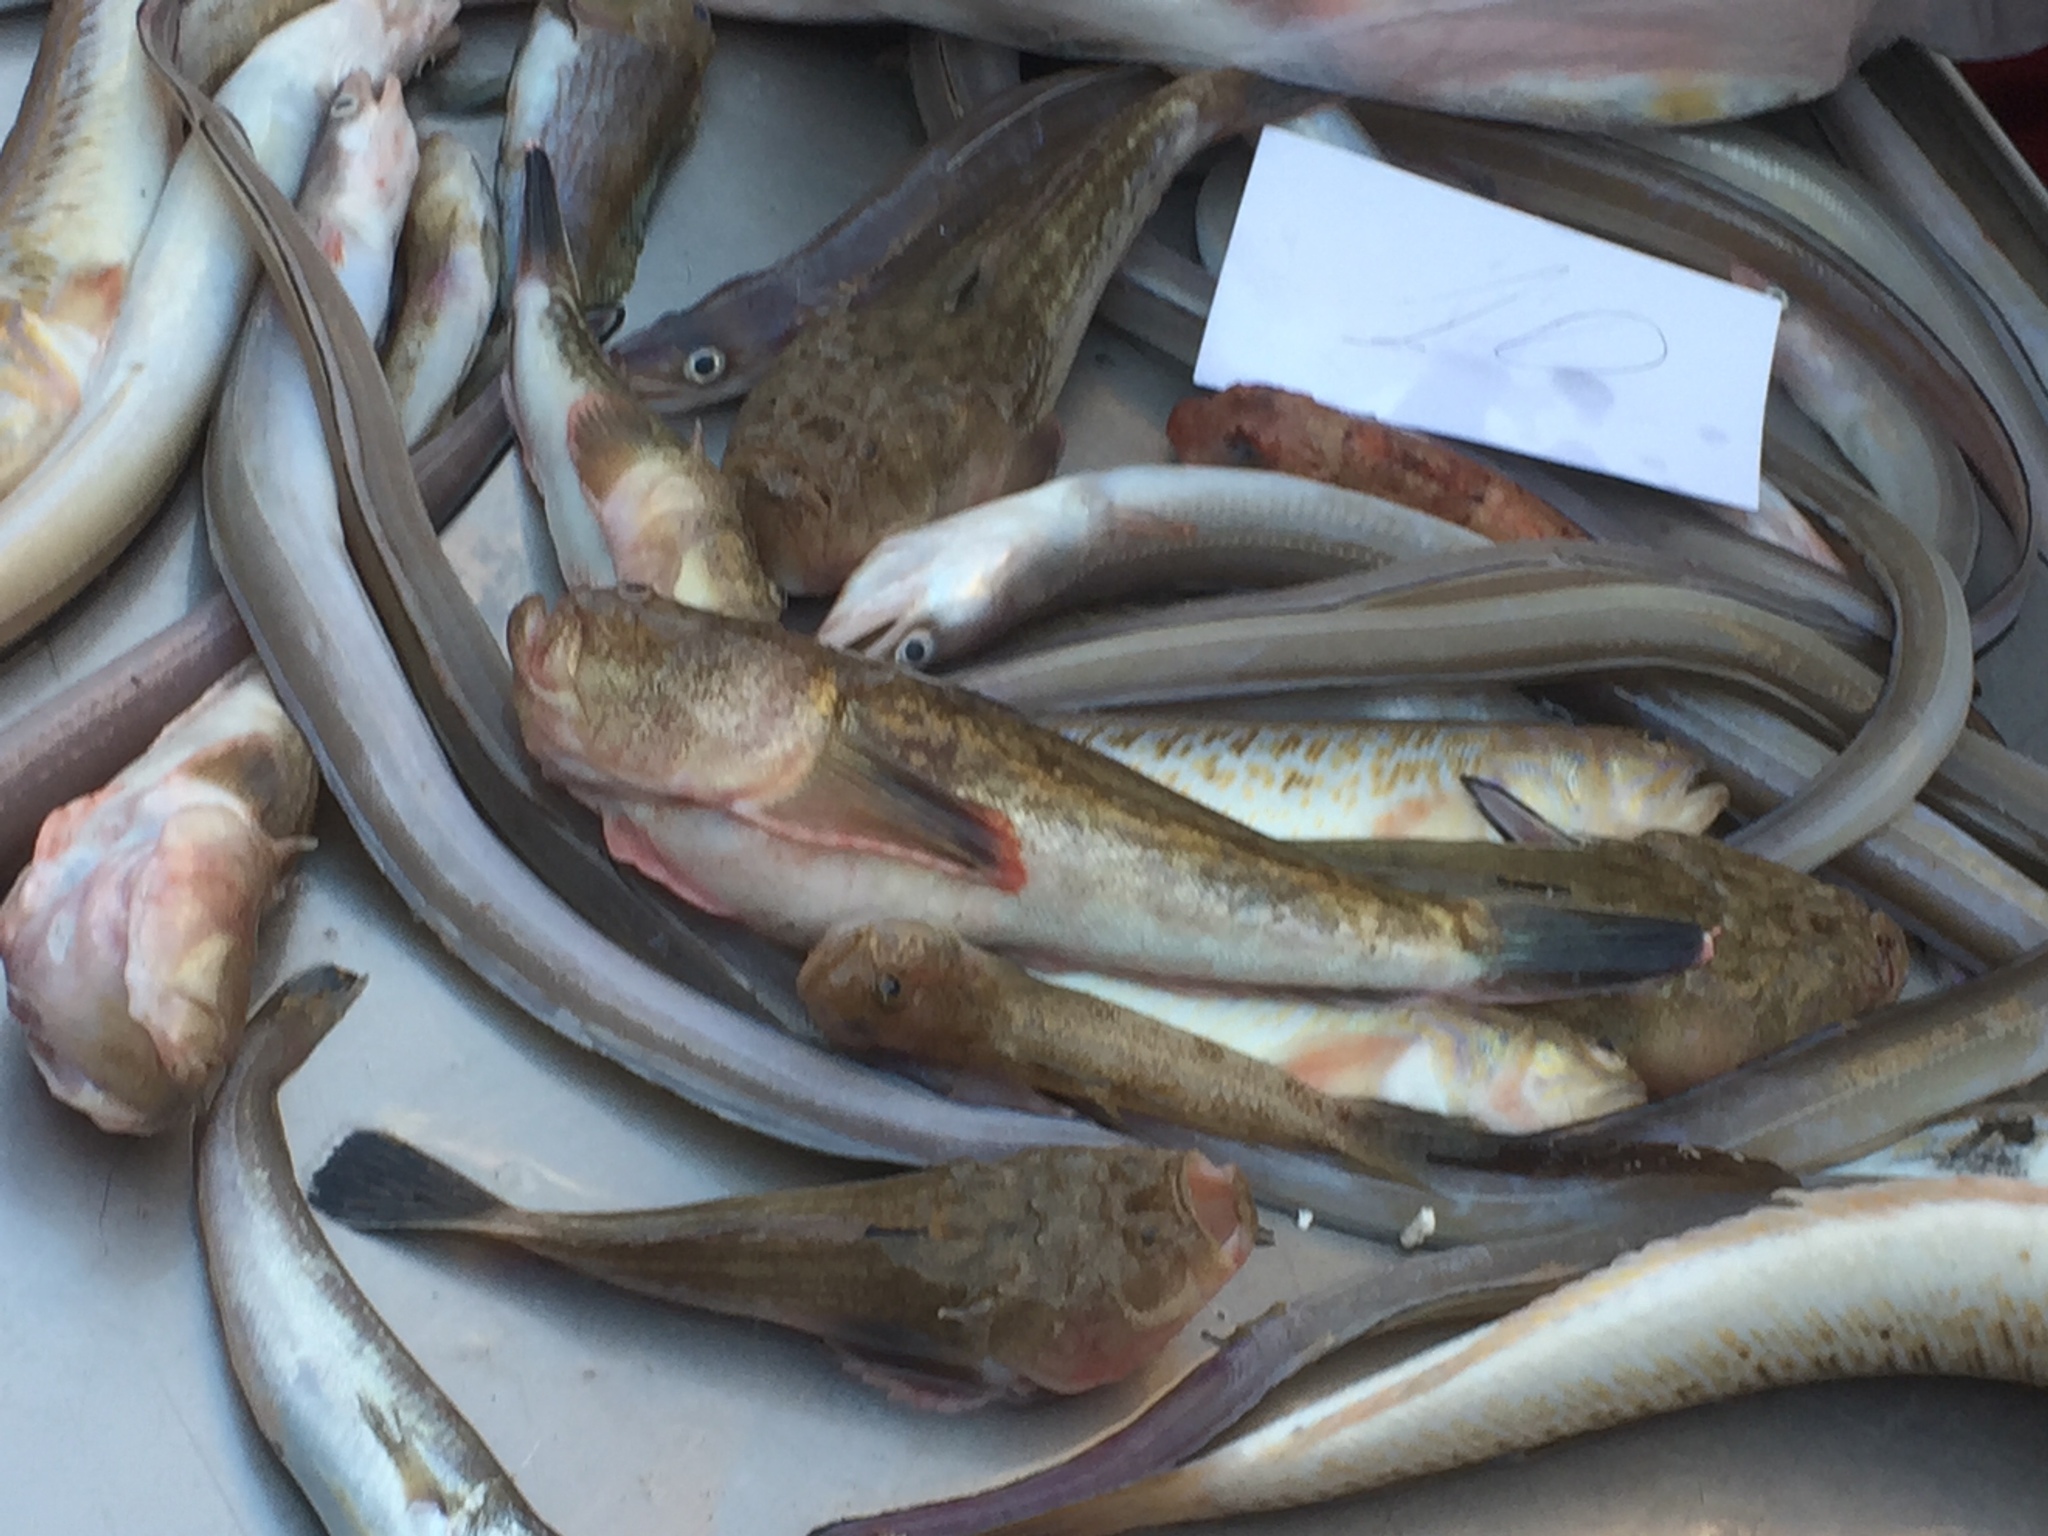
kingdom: Animalia
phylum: Chordata
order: Perciformes
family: Uranoscopidae
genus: Uranoscopus
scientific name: Uranoscopus scaber
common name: Stargazer
